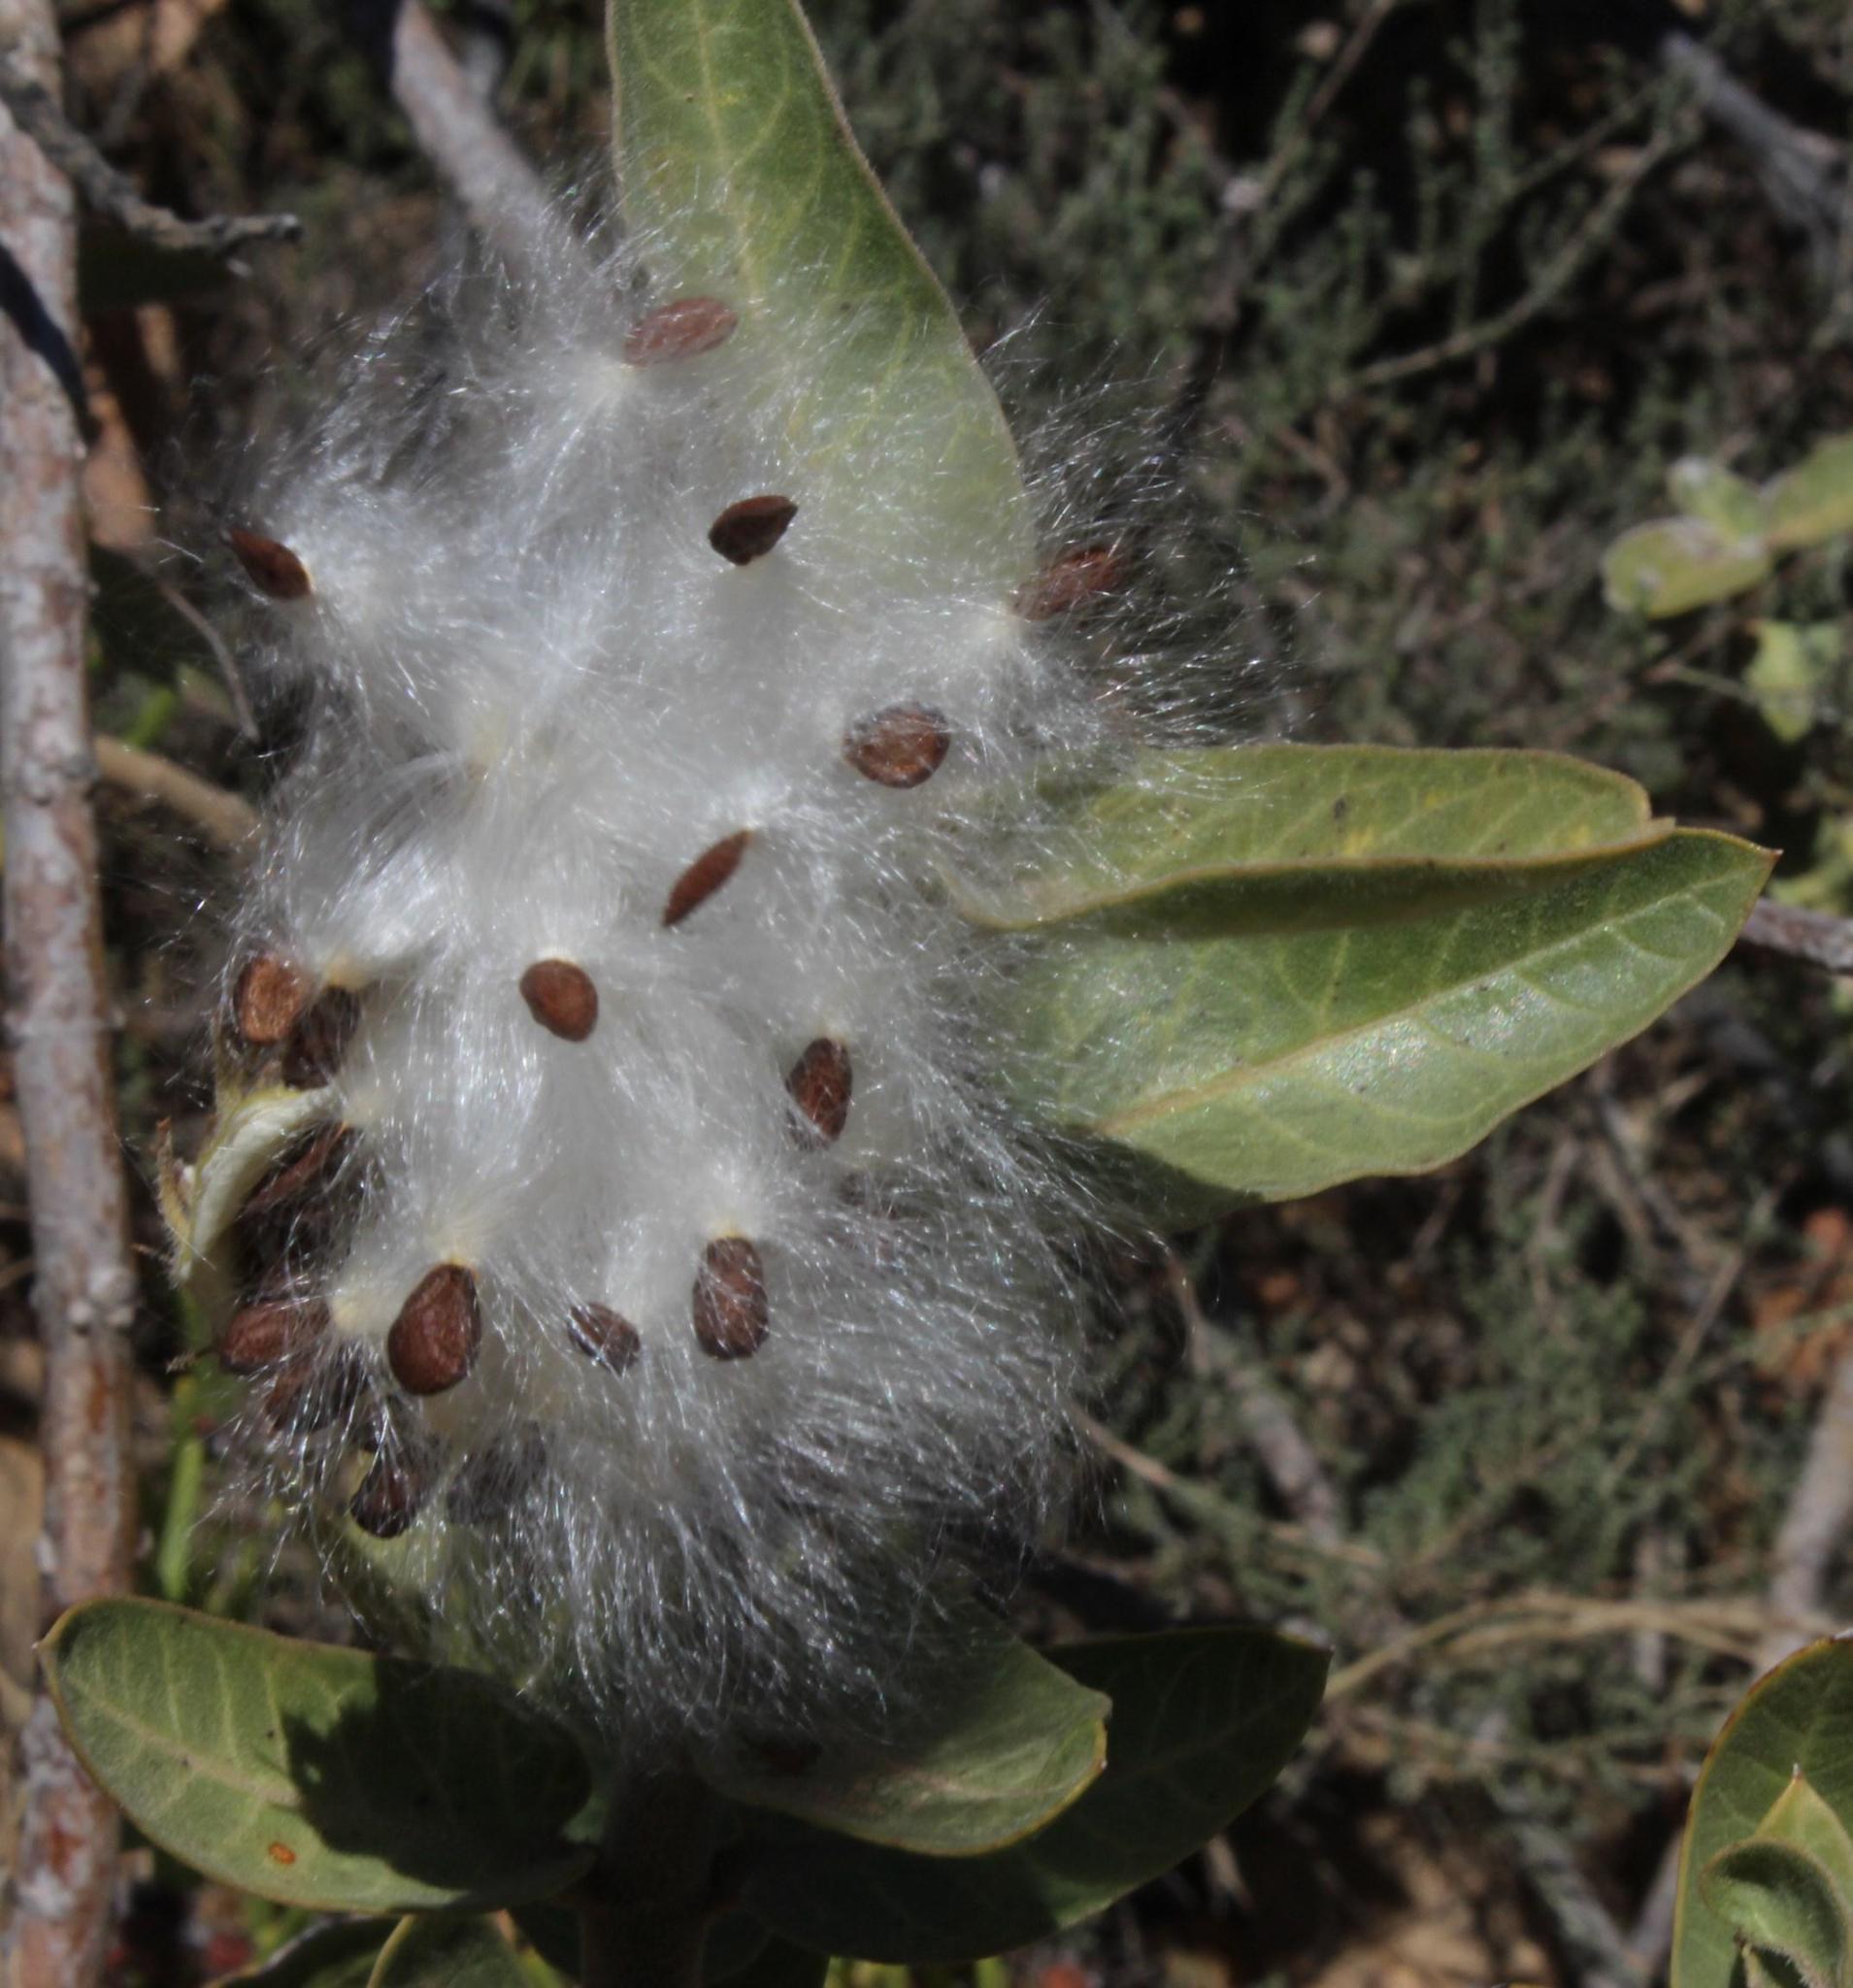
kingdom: Plantae
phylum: Tracheophyta
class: Magnoliopsida
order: Gentianales
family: Apocynaceae
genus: Gomphocarpus
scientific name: Gomphocarpus cancellatus
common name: Wild cotton
